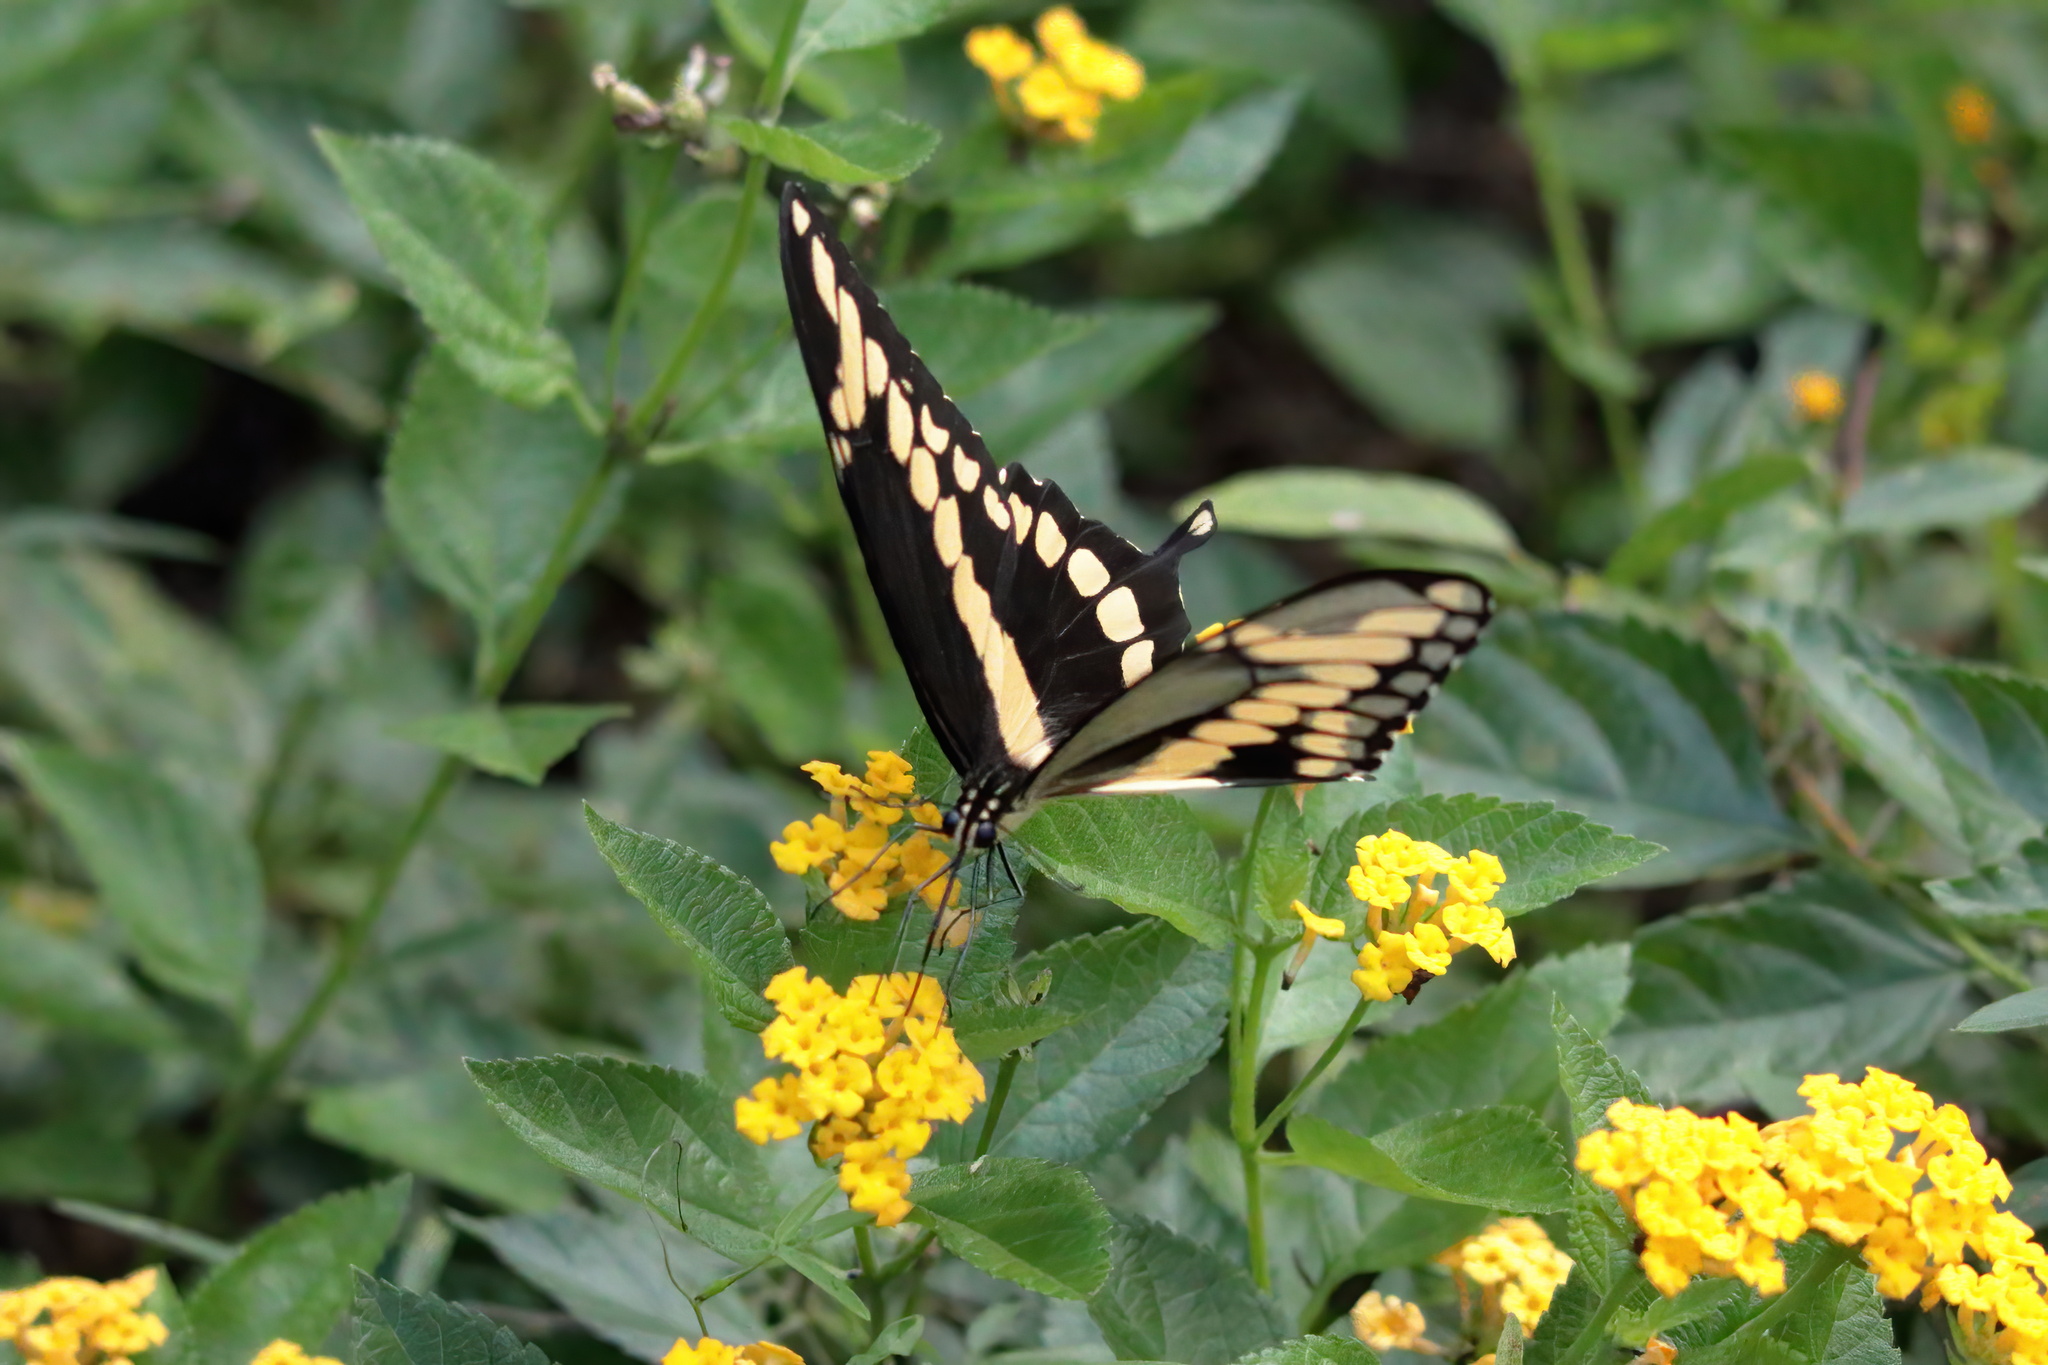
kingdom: Animalia
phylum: Arthropoda
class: Insecta
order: Lepidoptera
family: Papilionidae
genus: Papilio
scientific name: Papilio cresphontes
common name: Giant swallowtail
